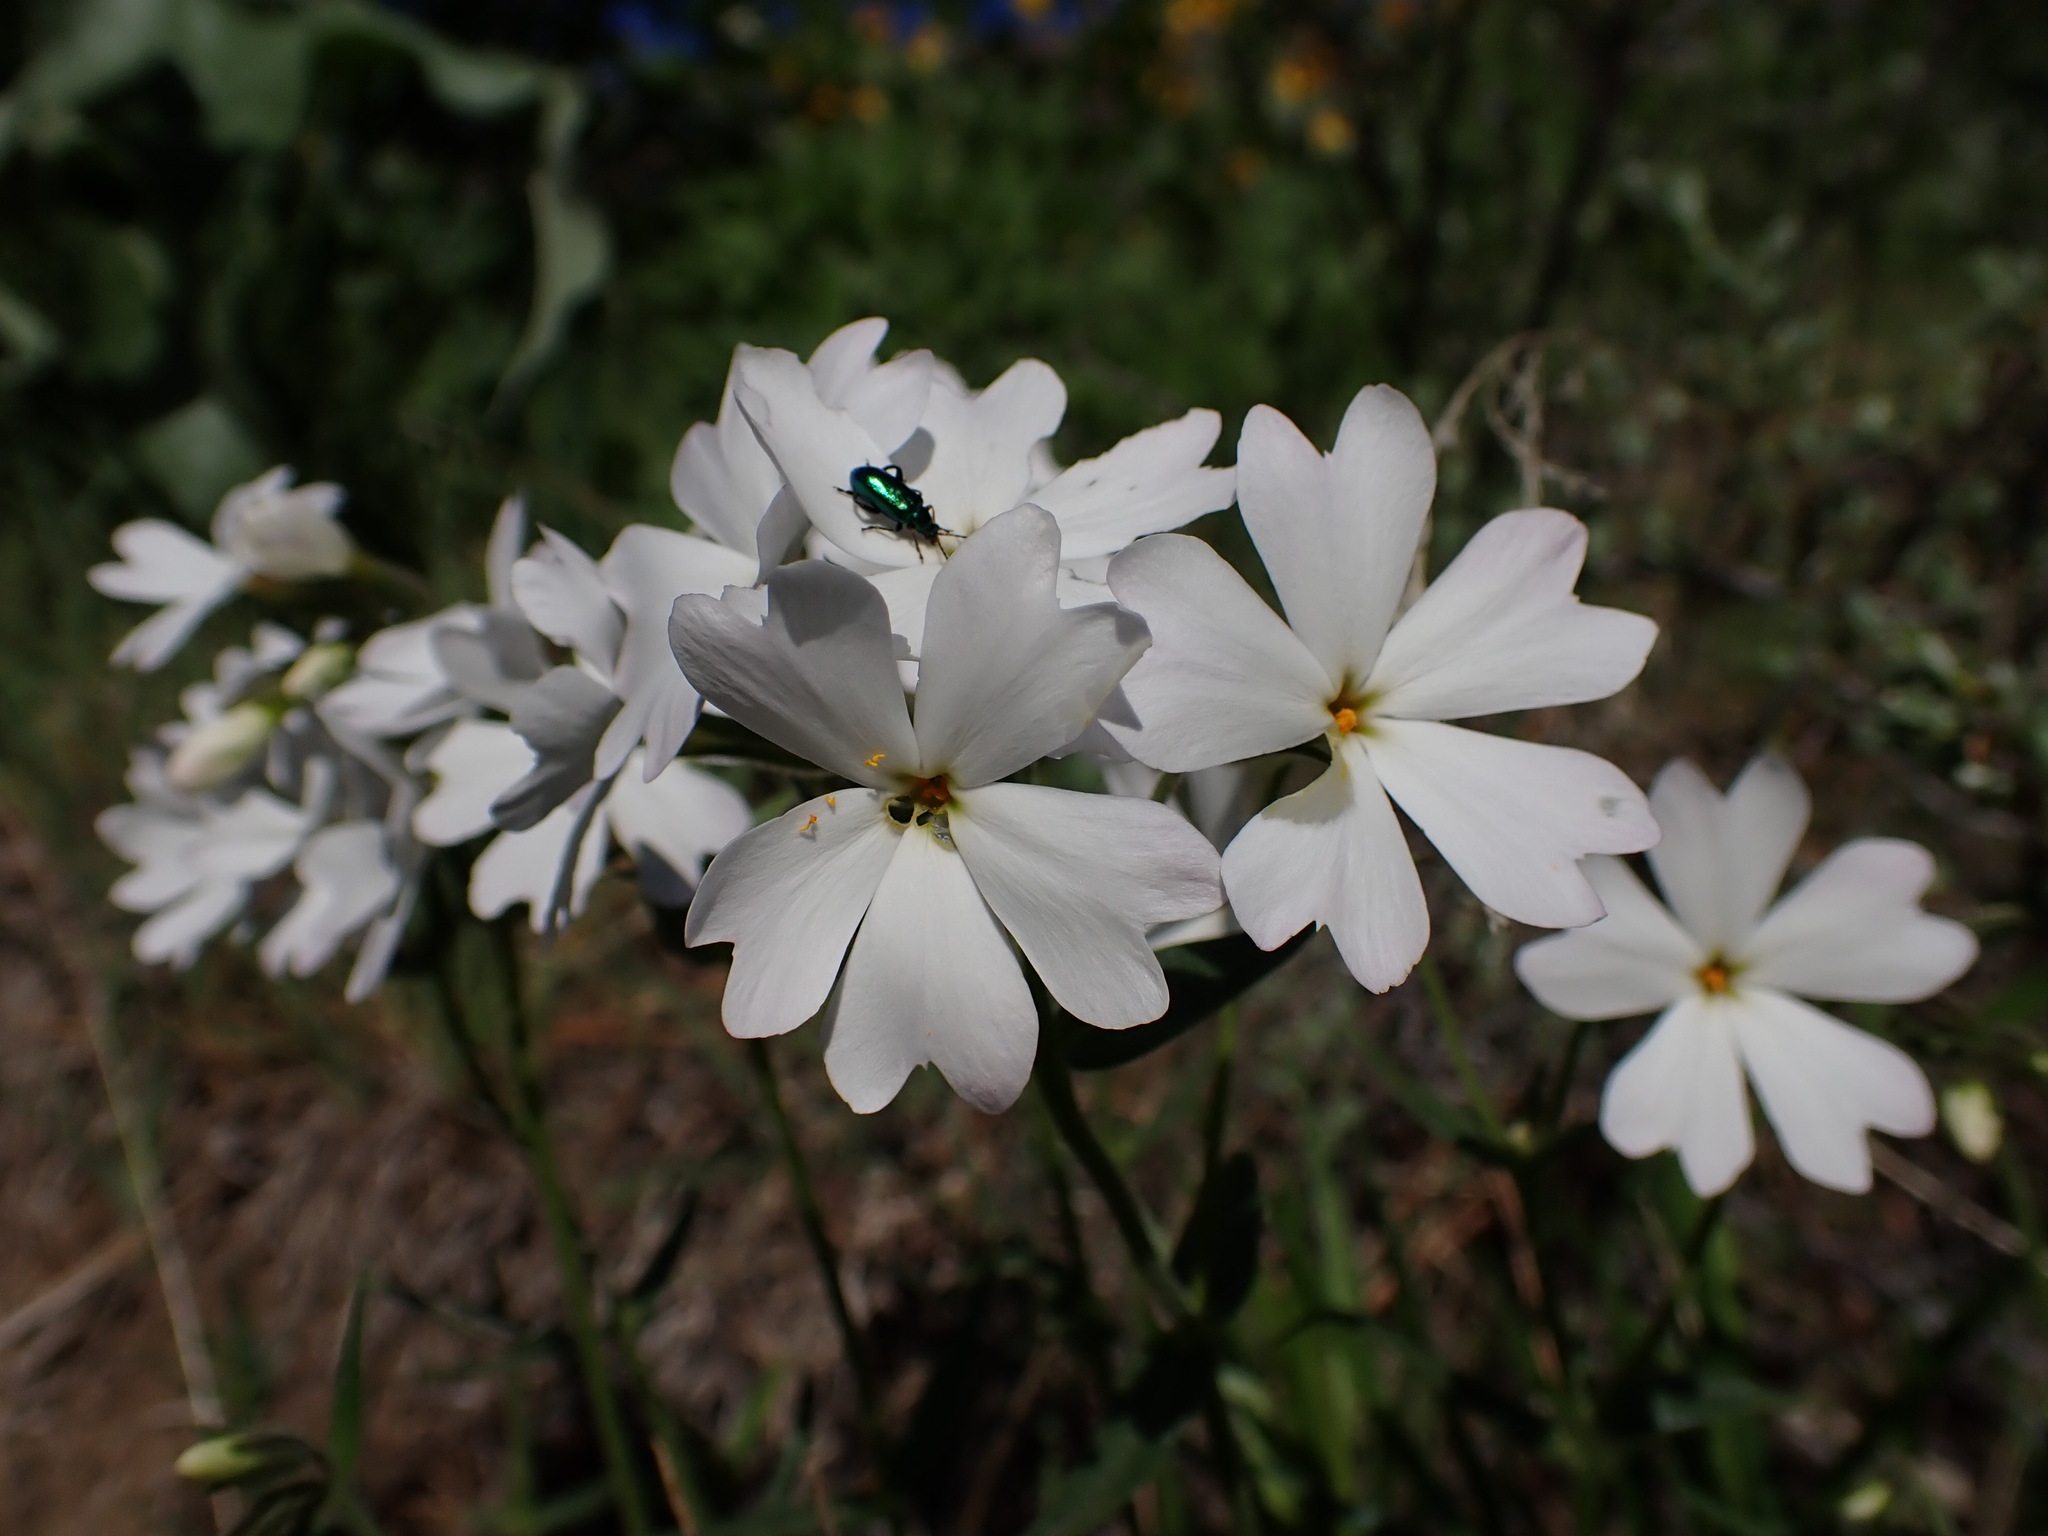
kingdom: Plantae
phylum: Tracheophyta
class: Magnoliopsida
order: Ericales
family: Polemoniaceae
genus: Phlox
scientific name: Phlox speciosa
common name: Bush phlox
